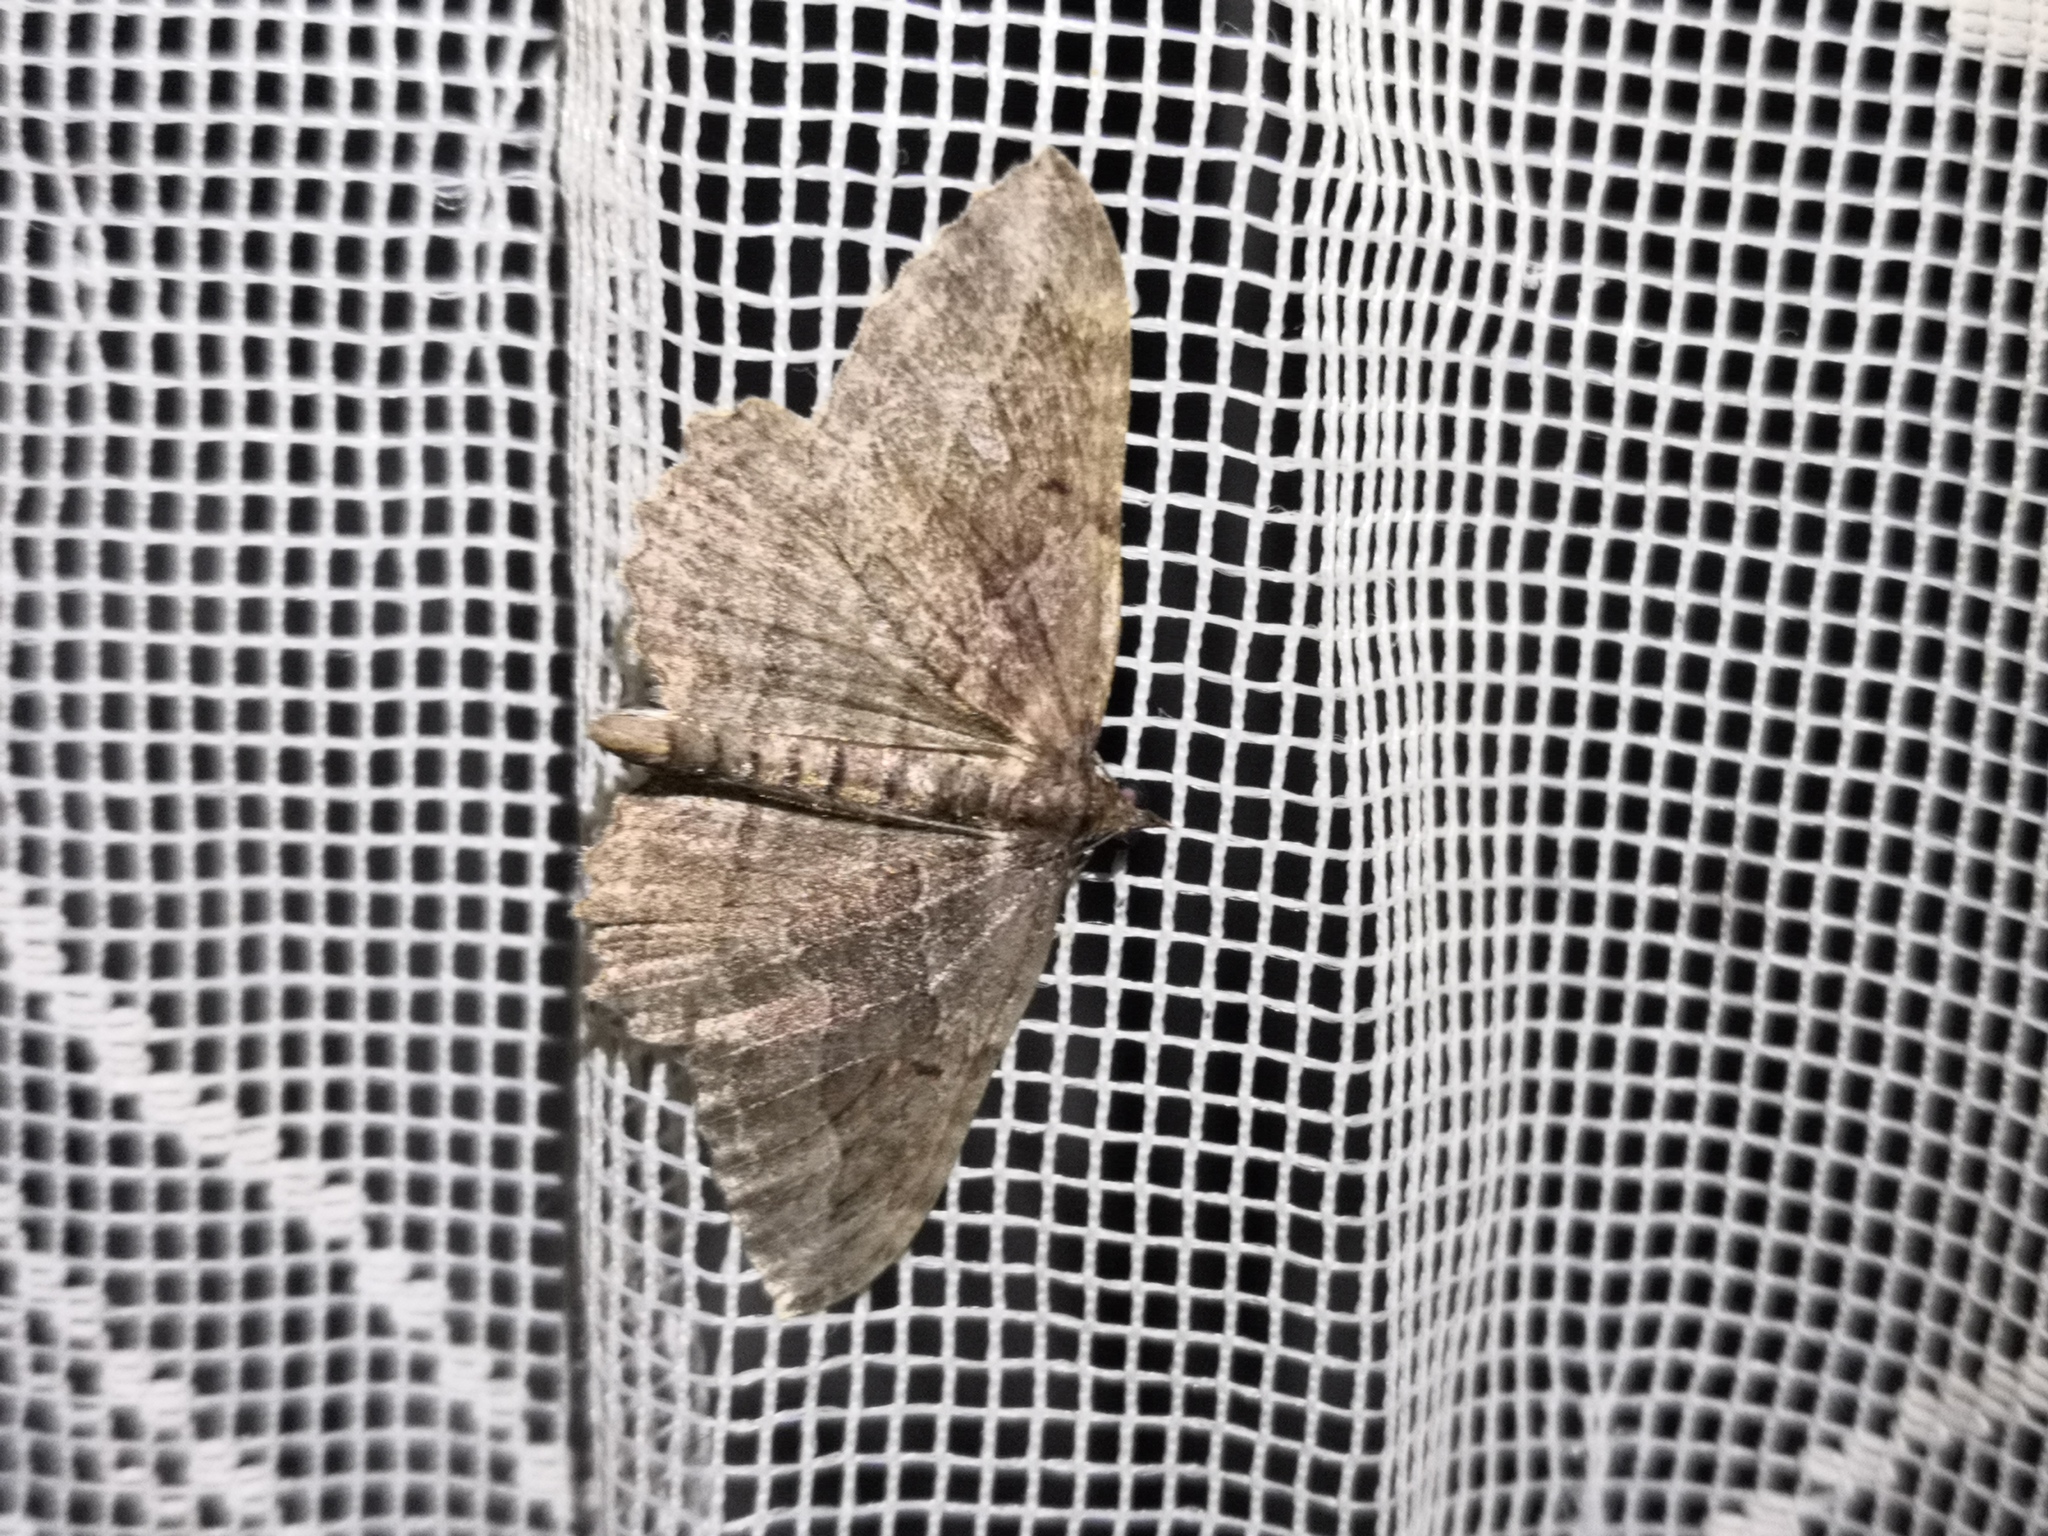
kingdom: Animalia
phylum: Arthropoda
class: Insecta
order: Lepidoptera
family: Geometridae
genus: Philereme
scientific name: Philereme transversata
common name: Dark umber
